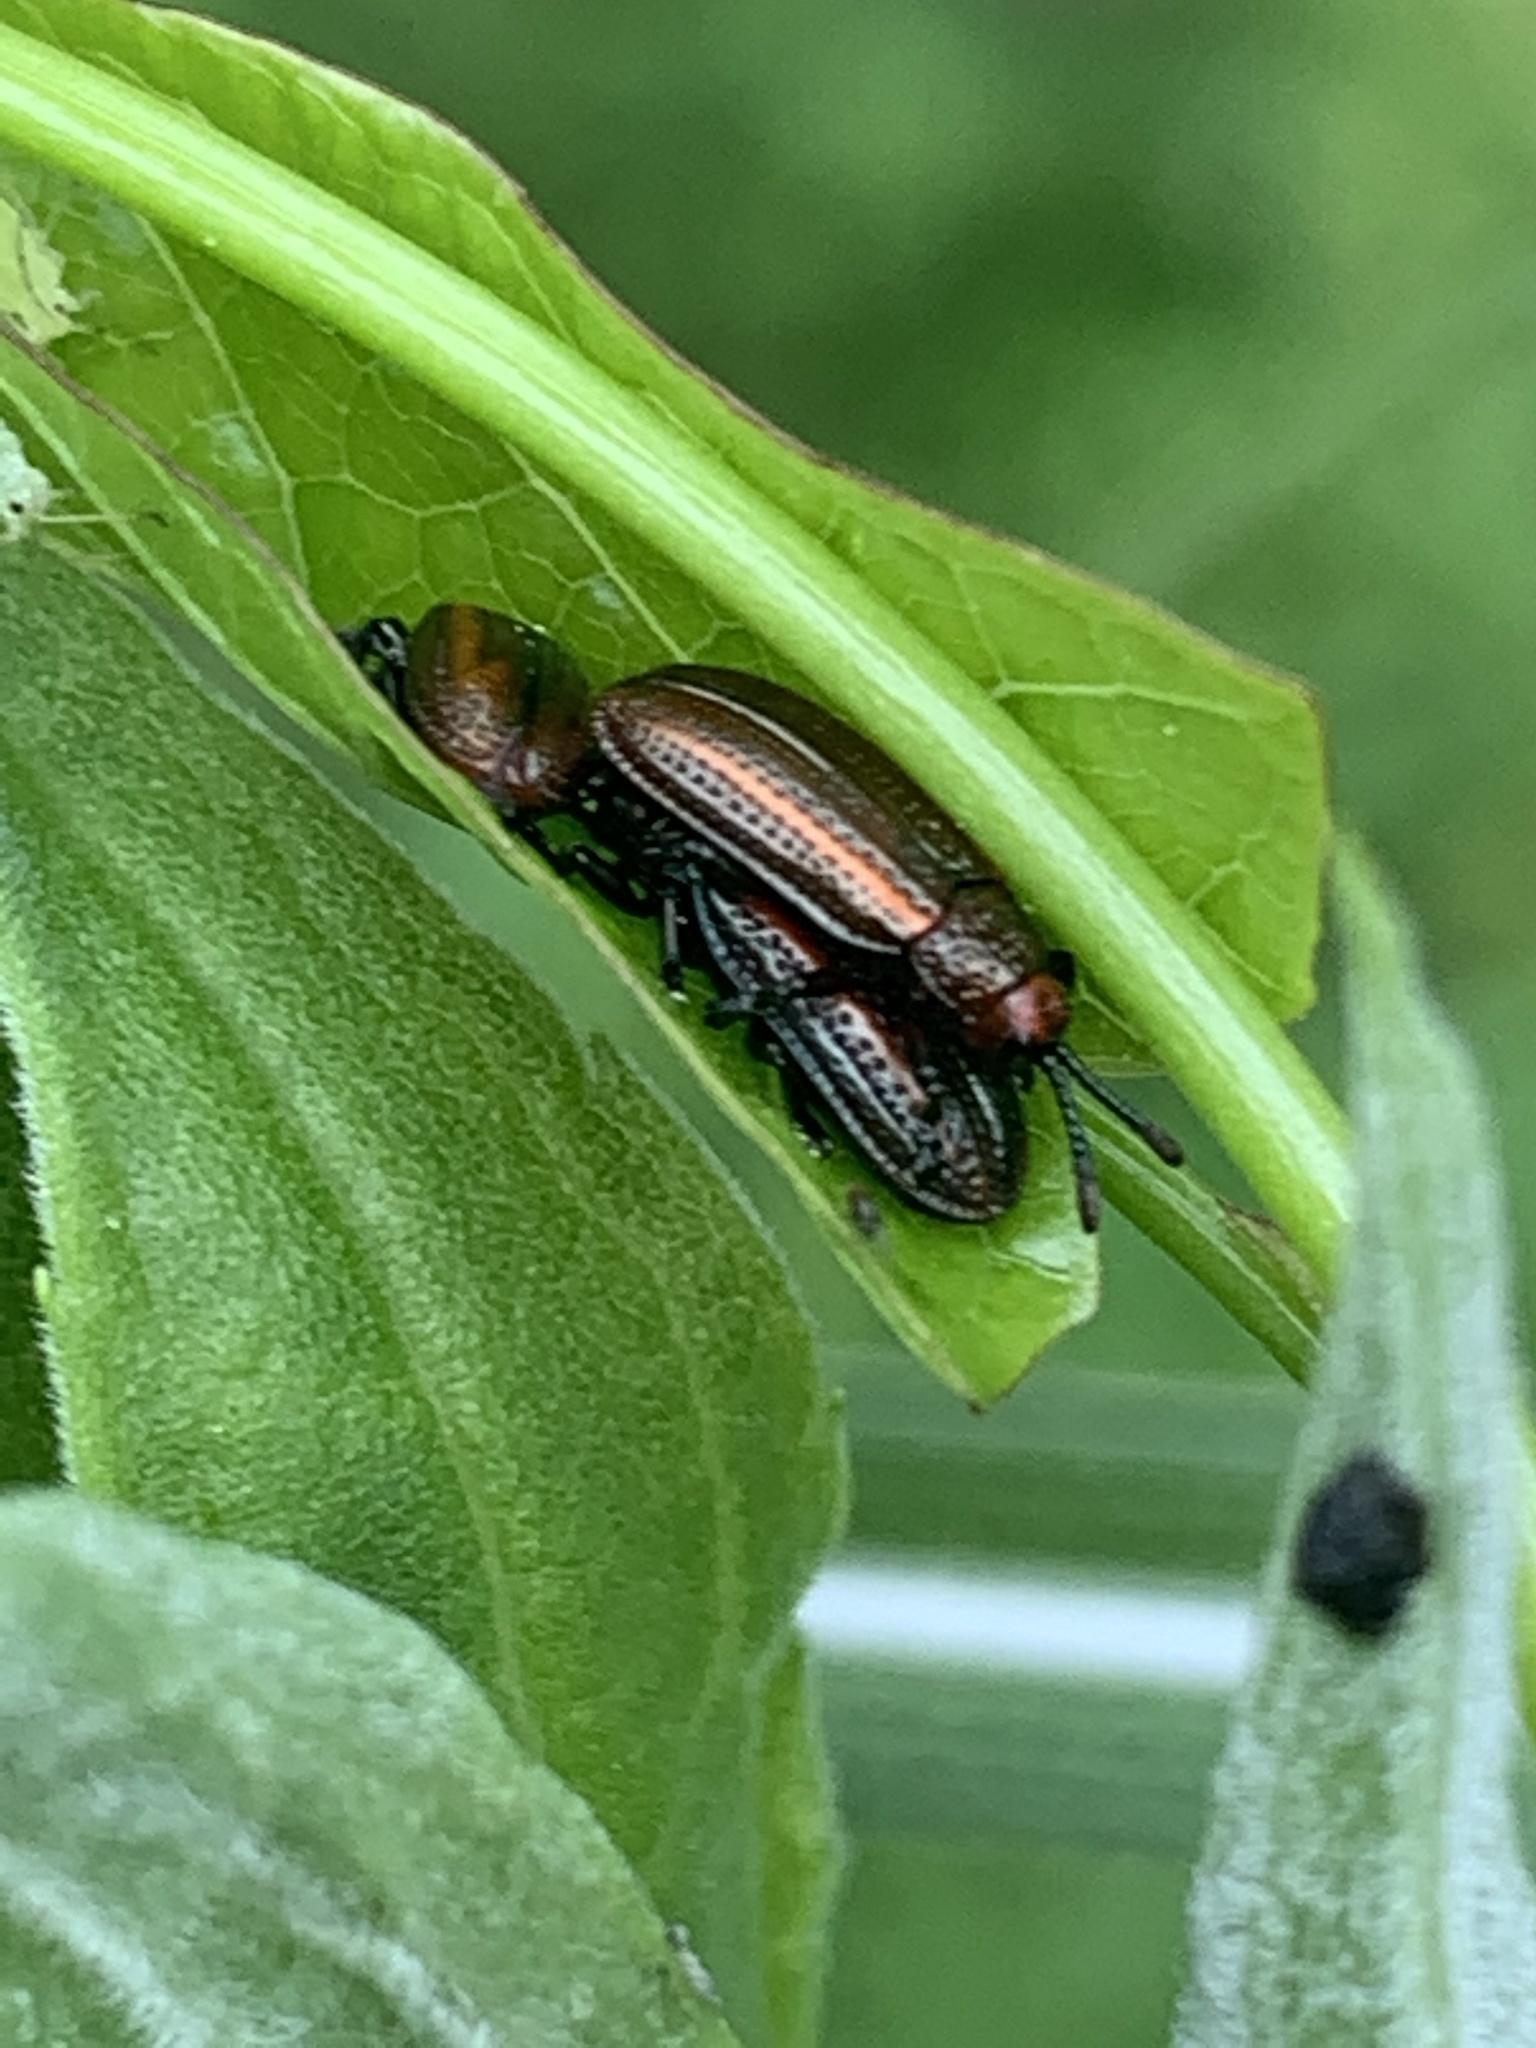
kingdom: Animalia
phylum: Arthropoda
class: Insecta
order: Coleoptera
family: Chrysomelidae
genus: Microrhopala
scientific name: Microrhopala vittata
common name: Goldenrod leaf miner beetle
